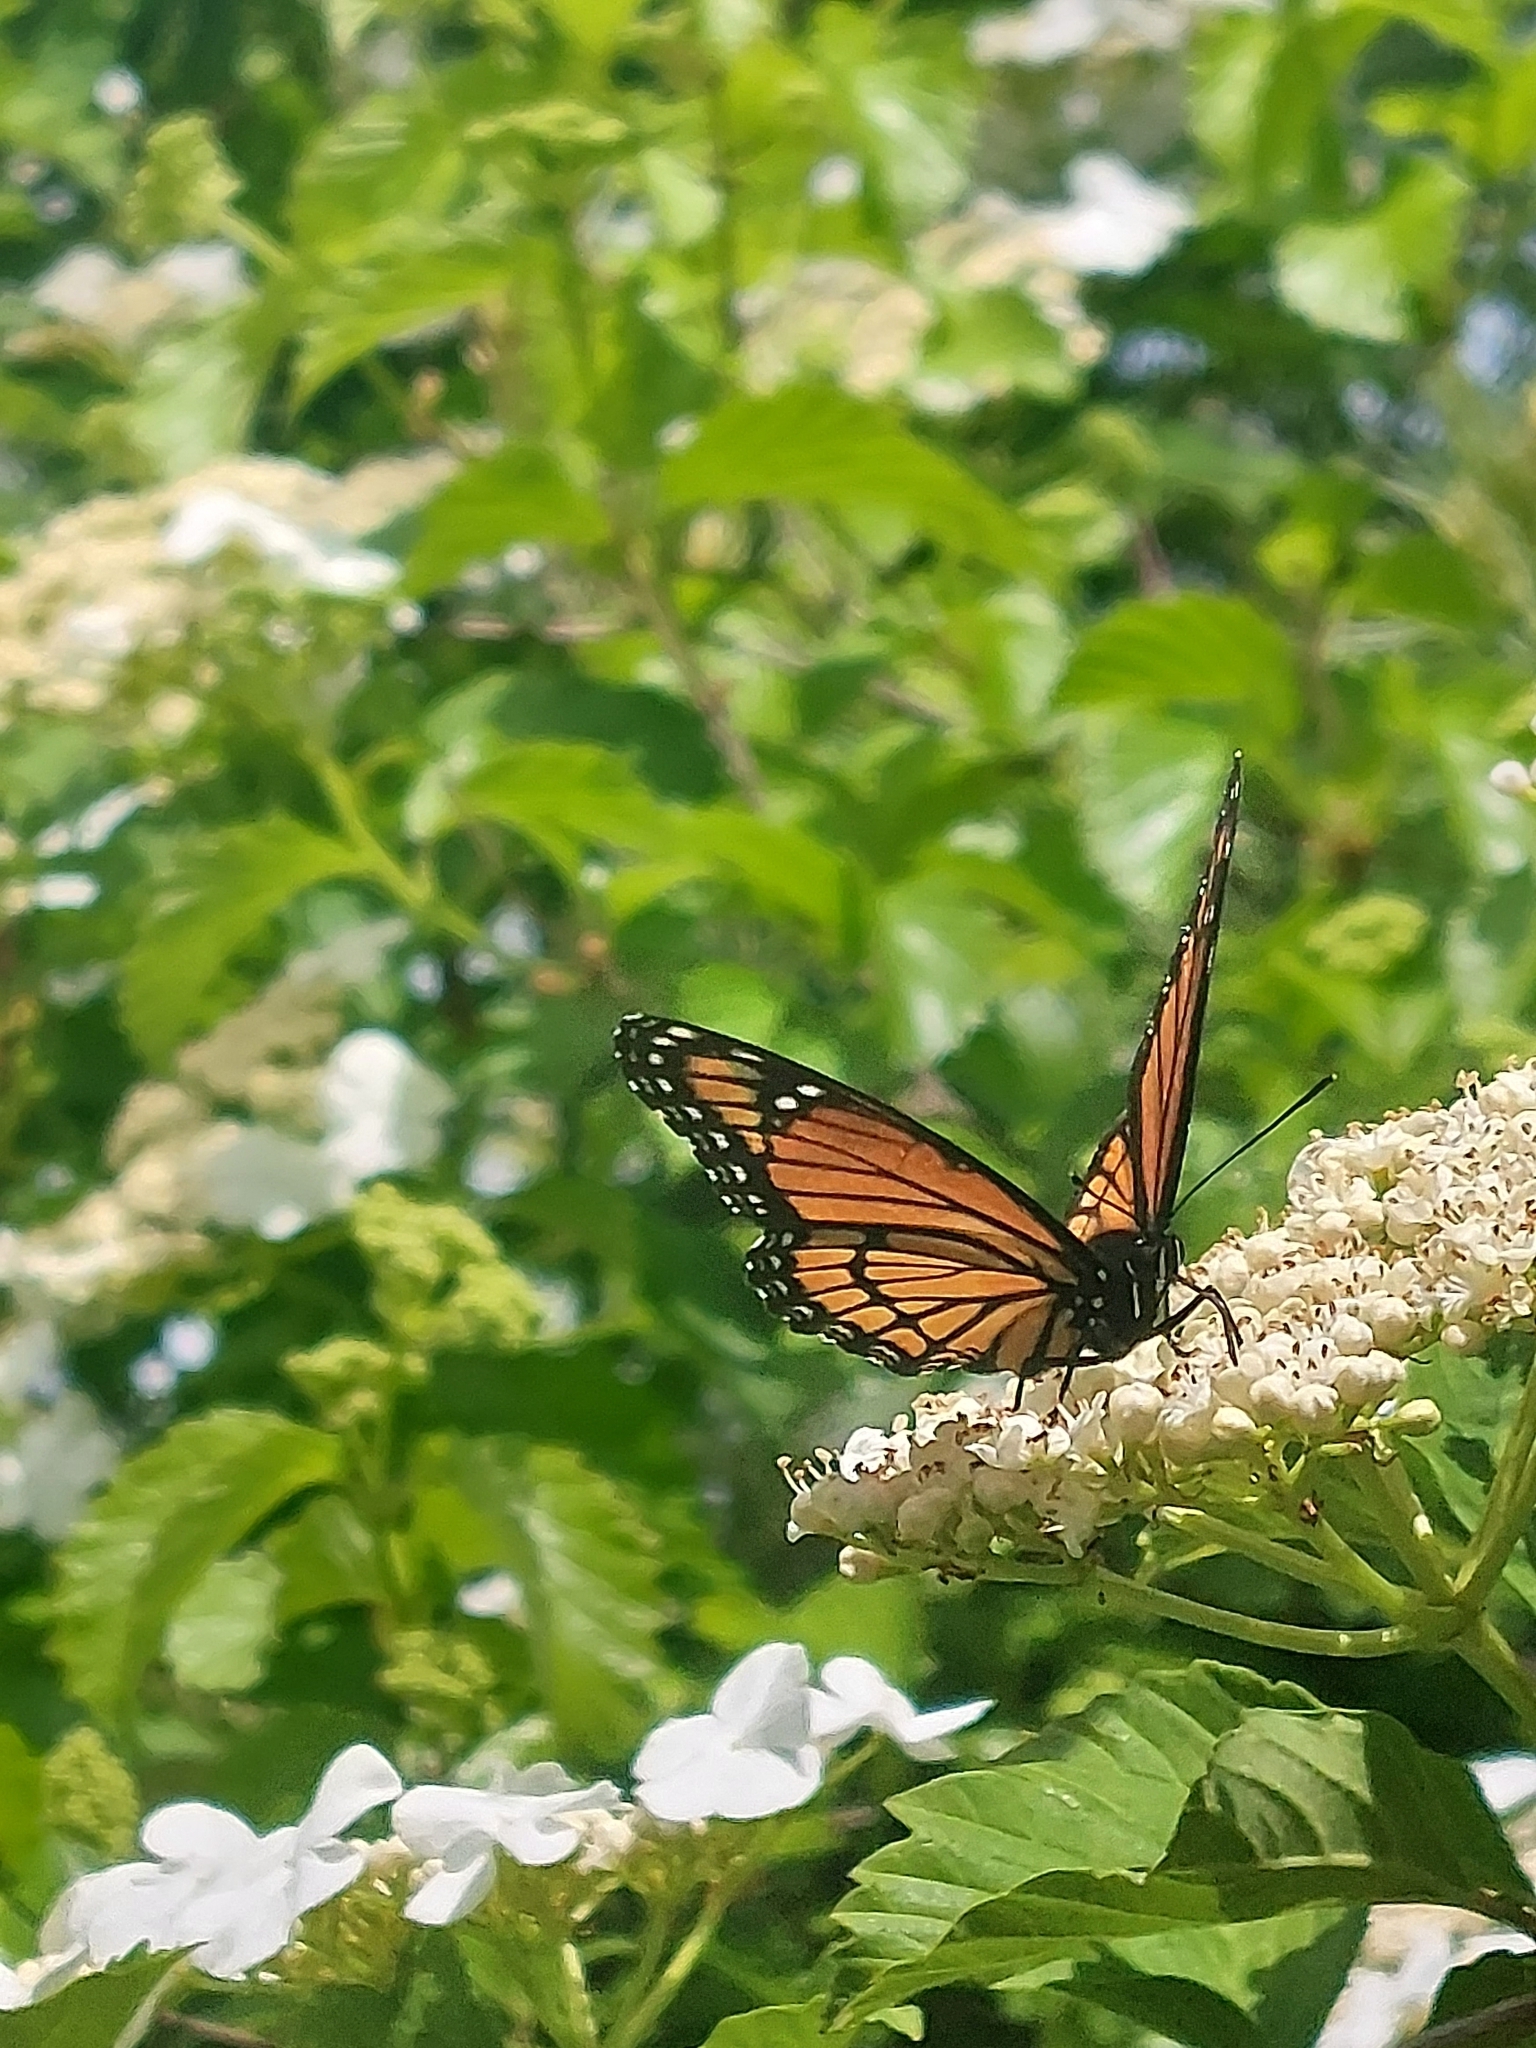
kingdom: Animalia
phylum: Arthropoda
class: Insecta
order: Lepidoptera
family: Nymphalidae
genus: Limenitis
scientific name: Limenitis archippus
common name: Viceroy
